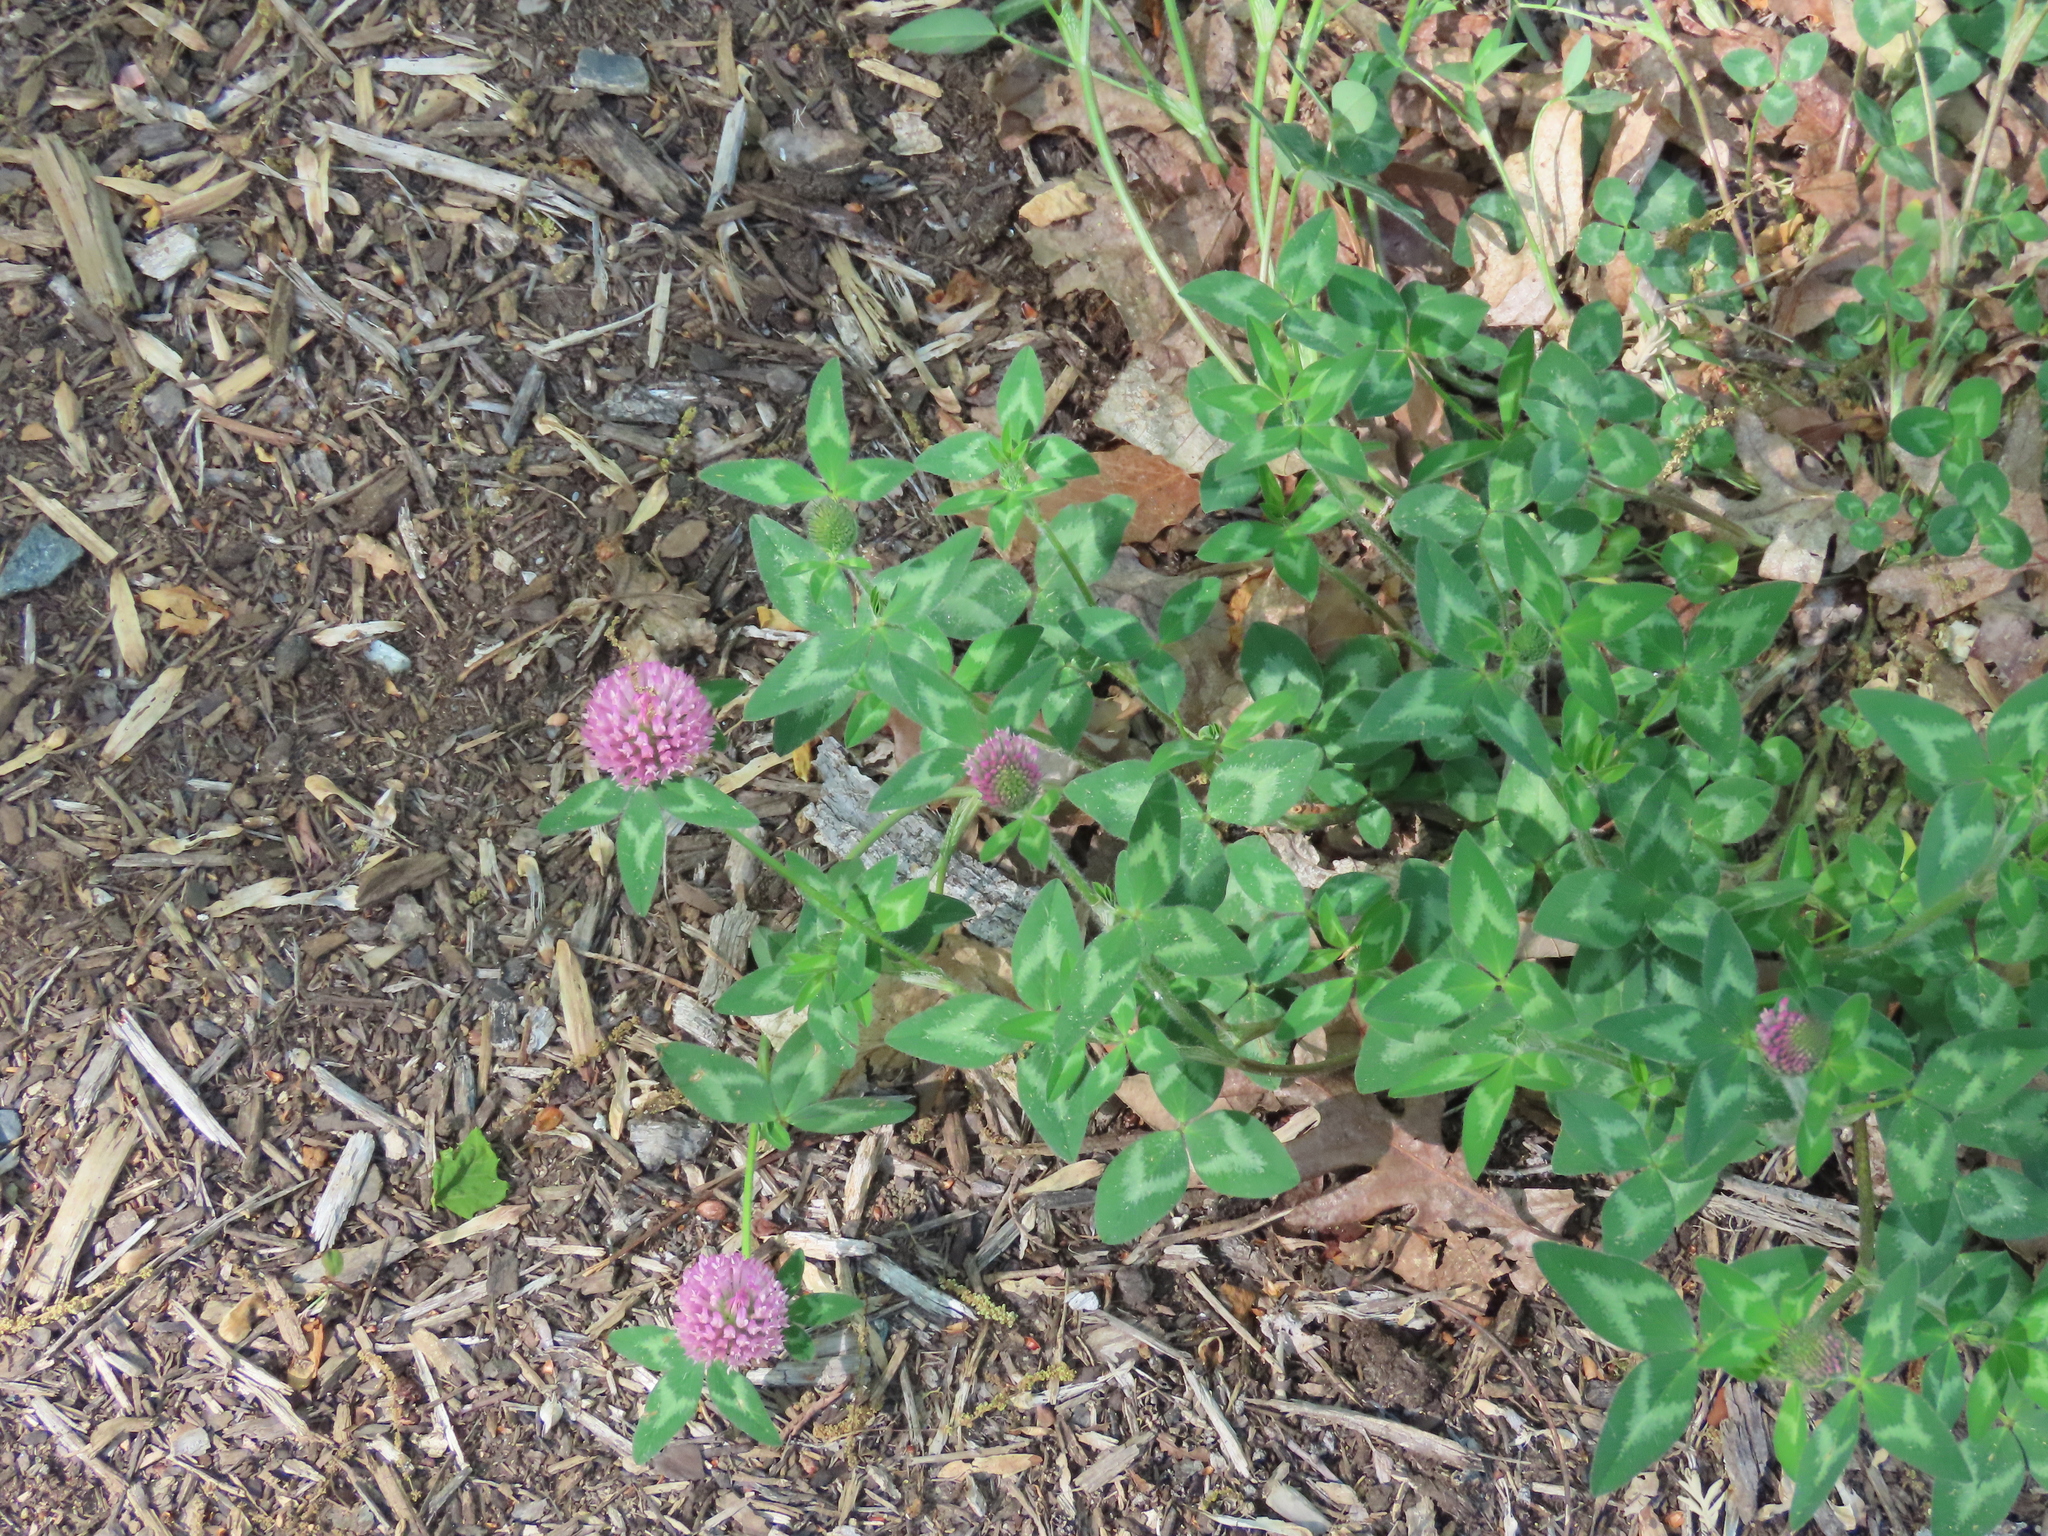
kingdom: Plantae
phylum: Tracheophyta
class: Magnoliopsida
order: Fabales
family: Fabaceae
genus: Trifolium
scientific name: Trifolium pratense
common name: Red clover
